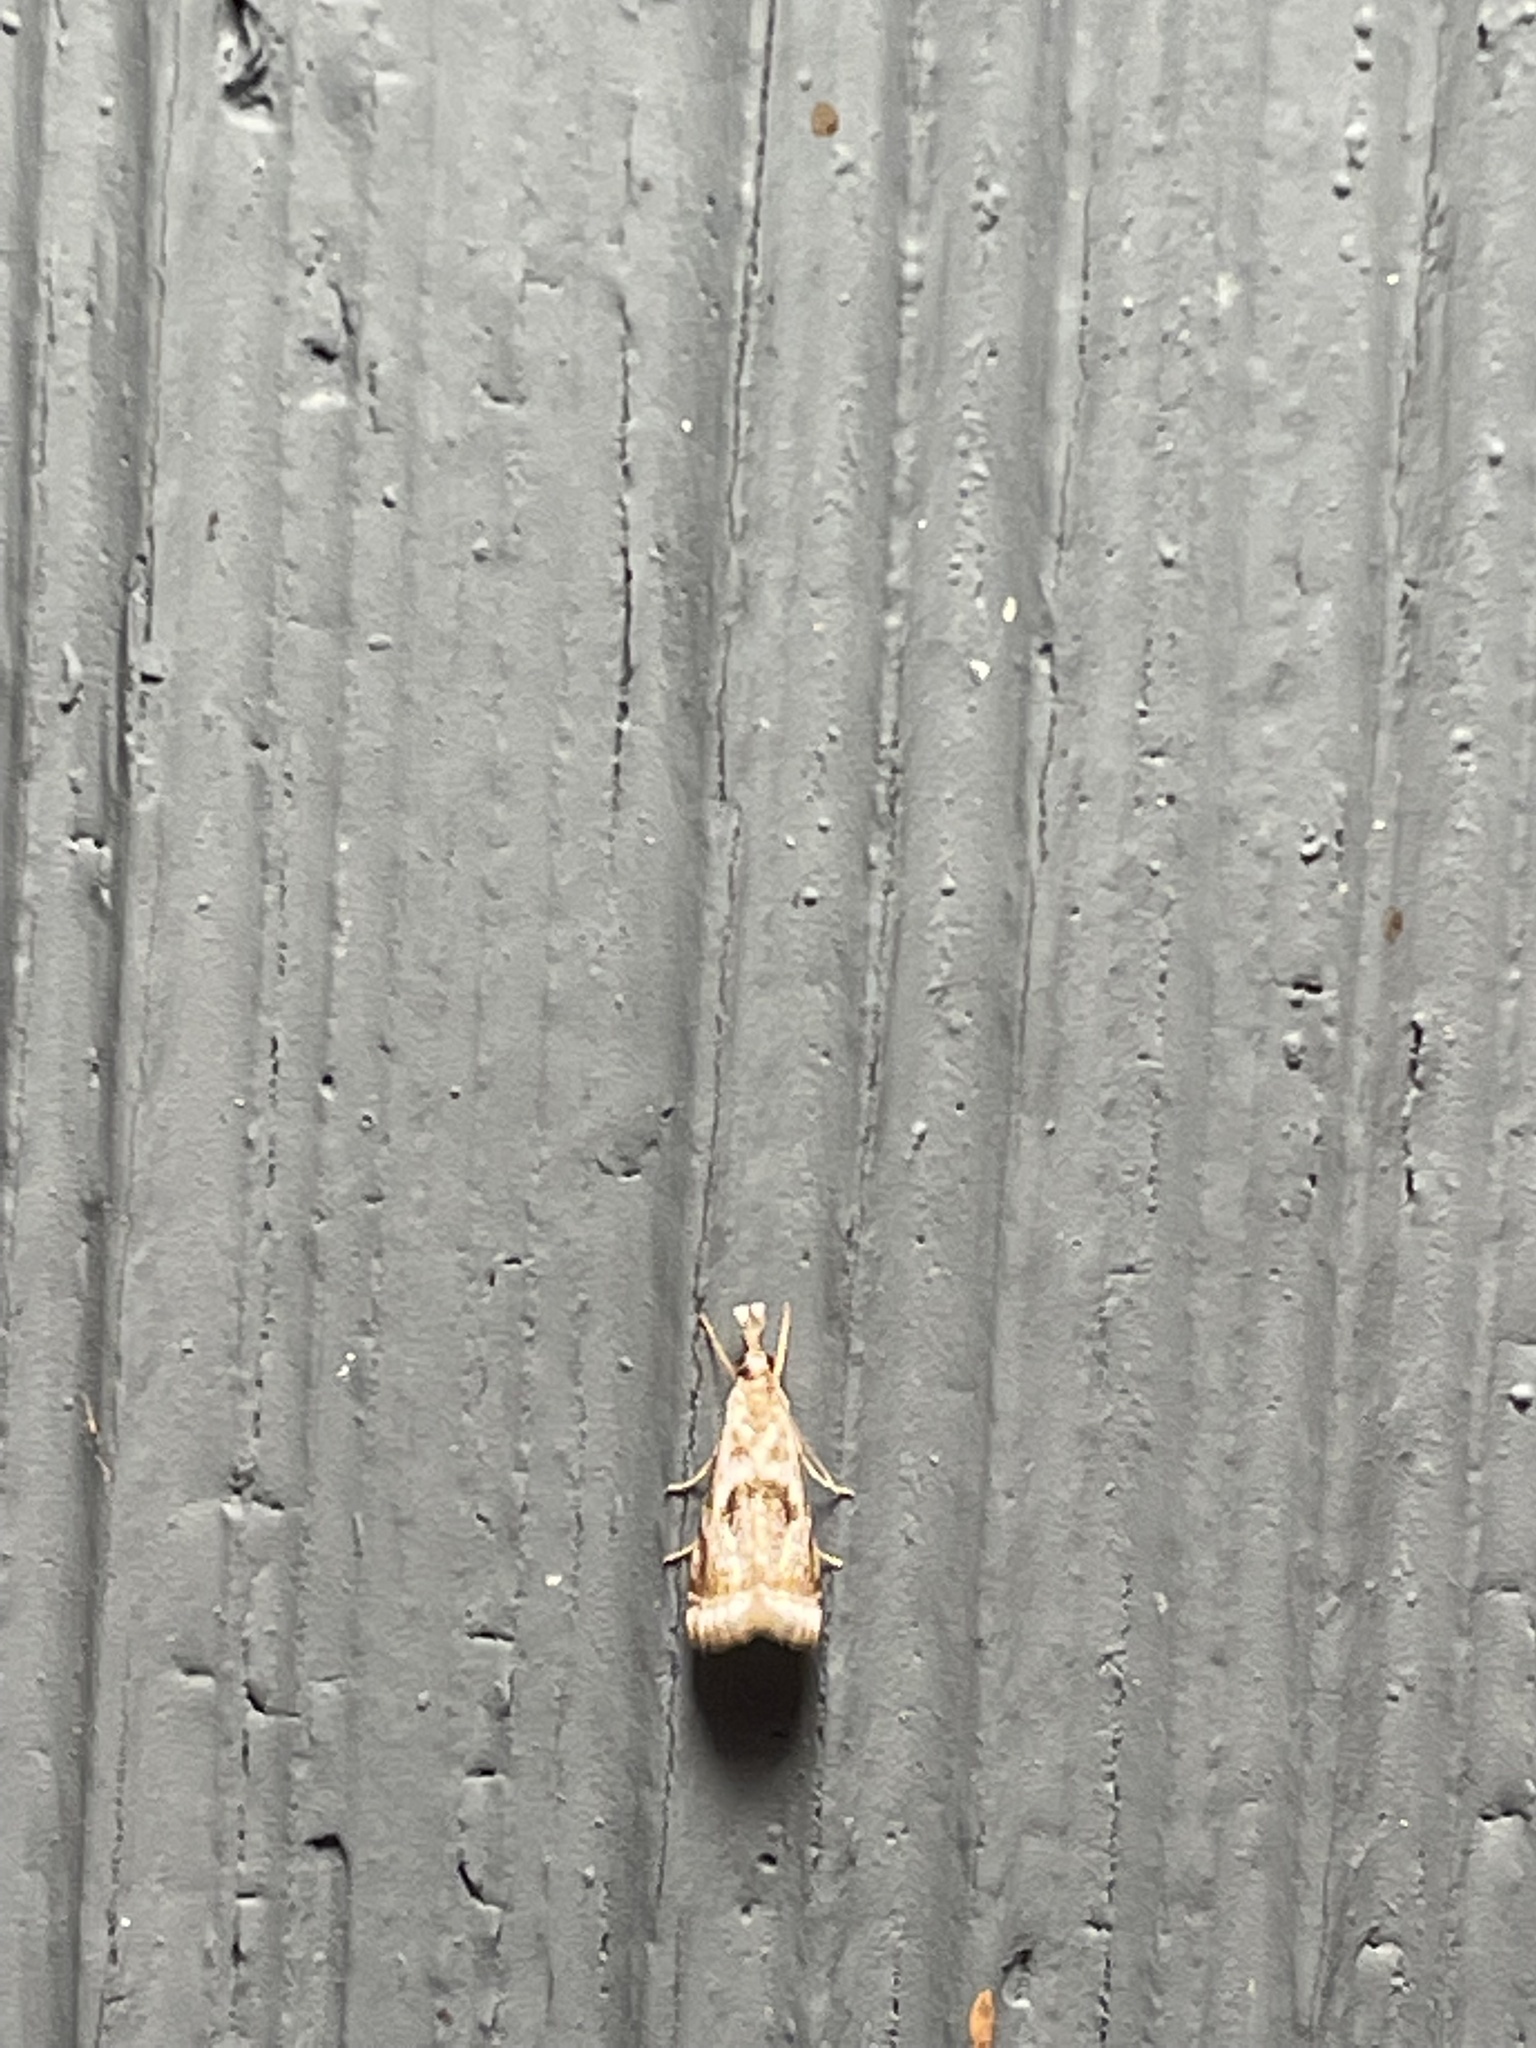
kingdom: Animalia
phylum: Arthropoda
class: Insecta
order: Lepidoptera
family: Crambidae
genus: Microcrambus
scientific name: Microcrambus elegans
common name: Elegant grass-veneer
